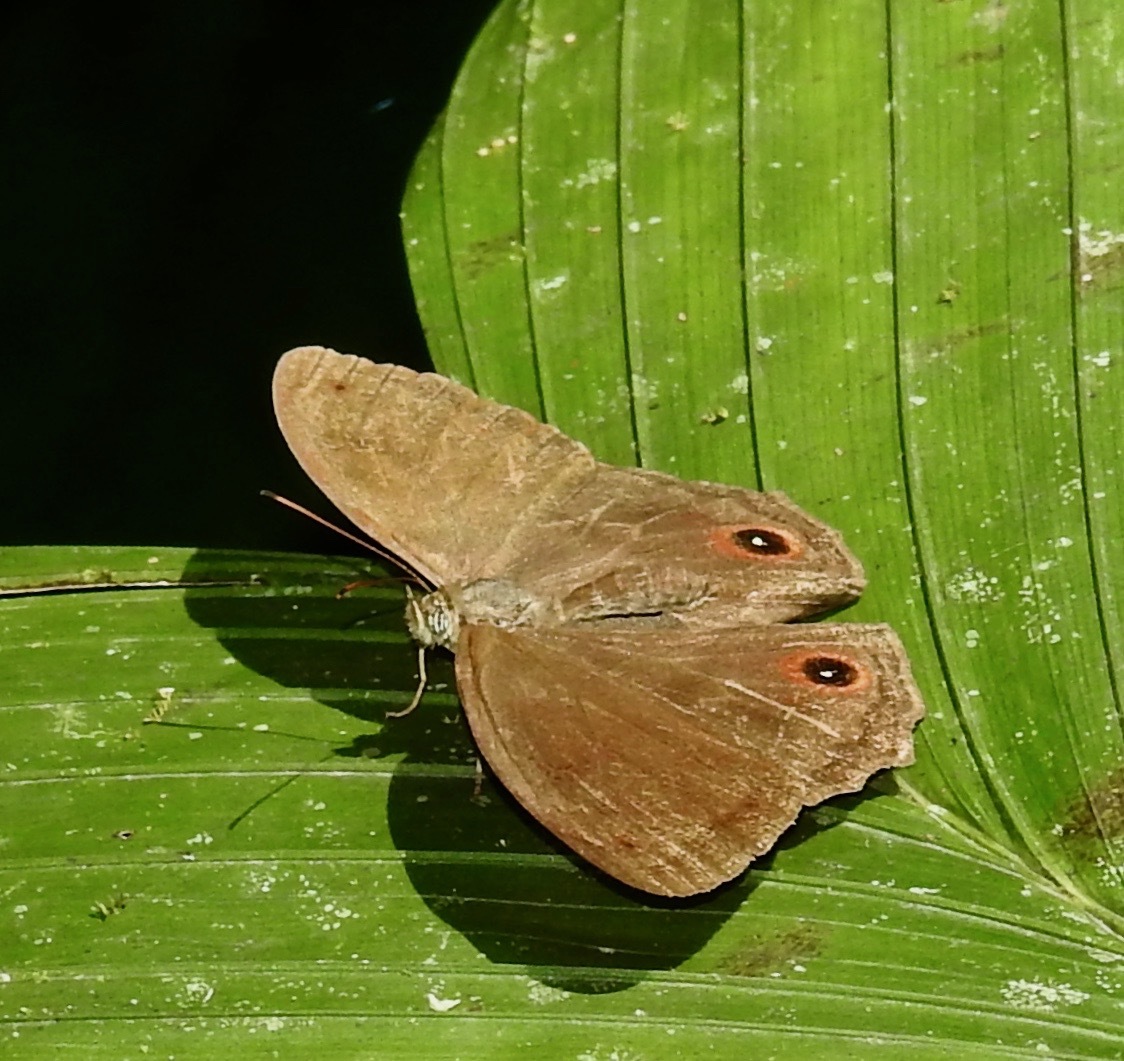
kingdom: Animalia
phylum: Arthropoda
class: Insecta
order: Lepidoptera
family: Nymphalidae
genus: Satyrotaygetis
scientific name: Satyrotaygetis
